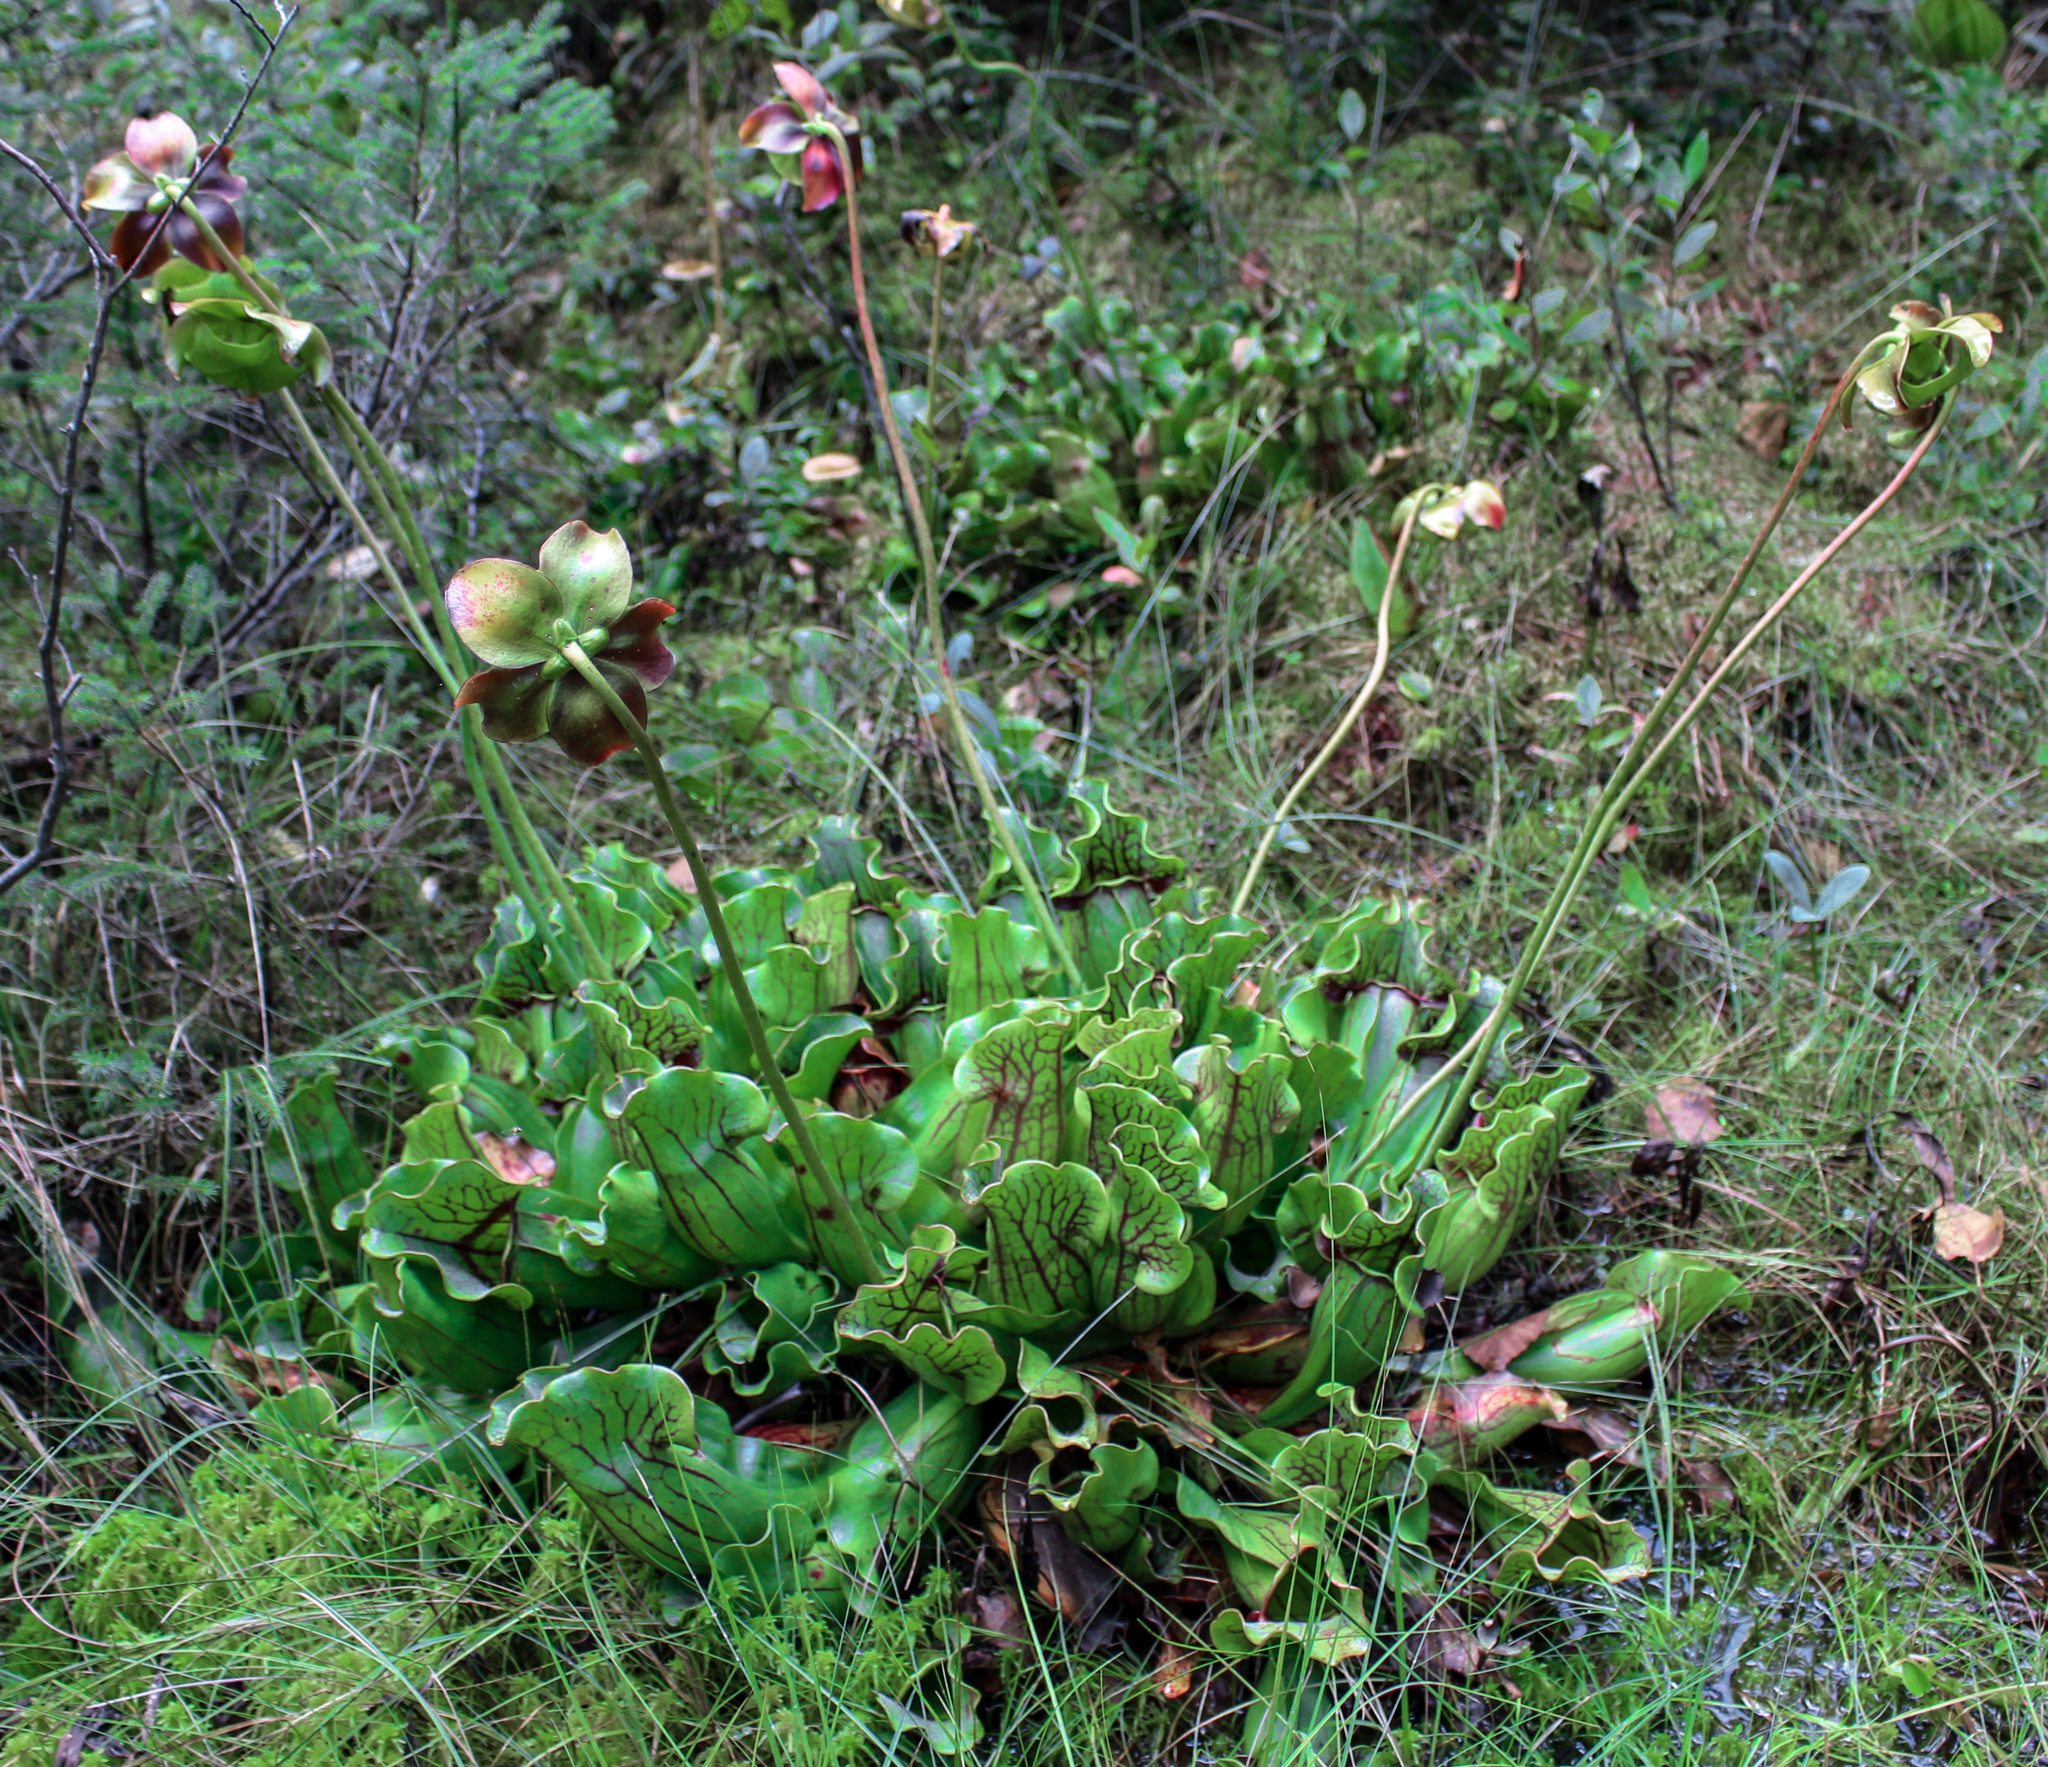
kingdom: Plantae
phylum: Tracheophyta
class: Magnoliopsida
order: Ericales
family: Sarraceniaceae
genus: Sarracenia
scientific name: Sarracenia purpurea
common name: Pitcherplant
